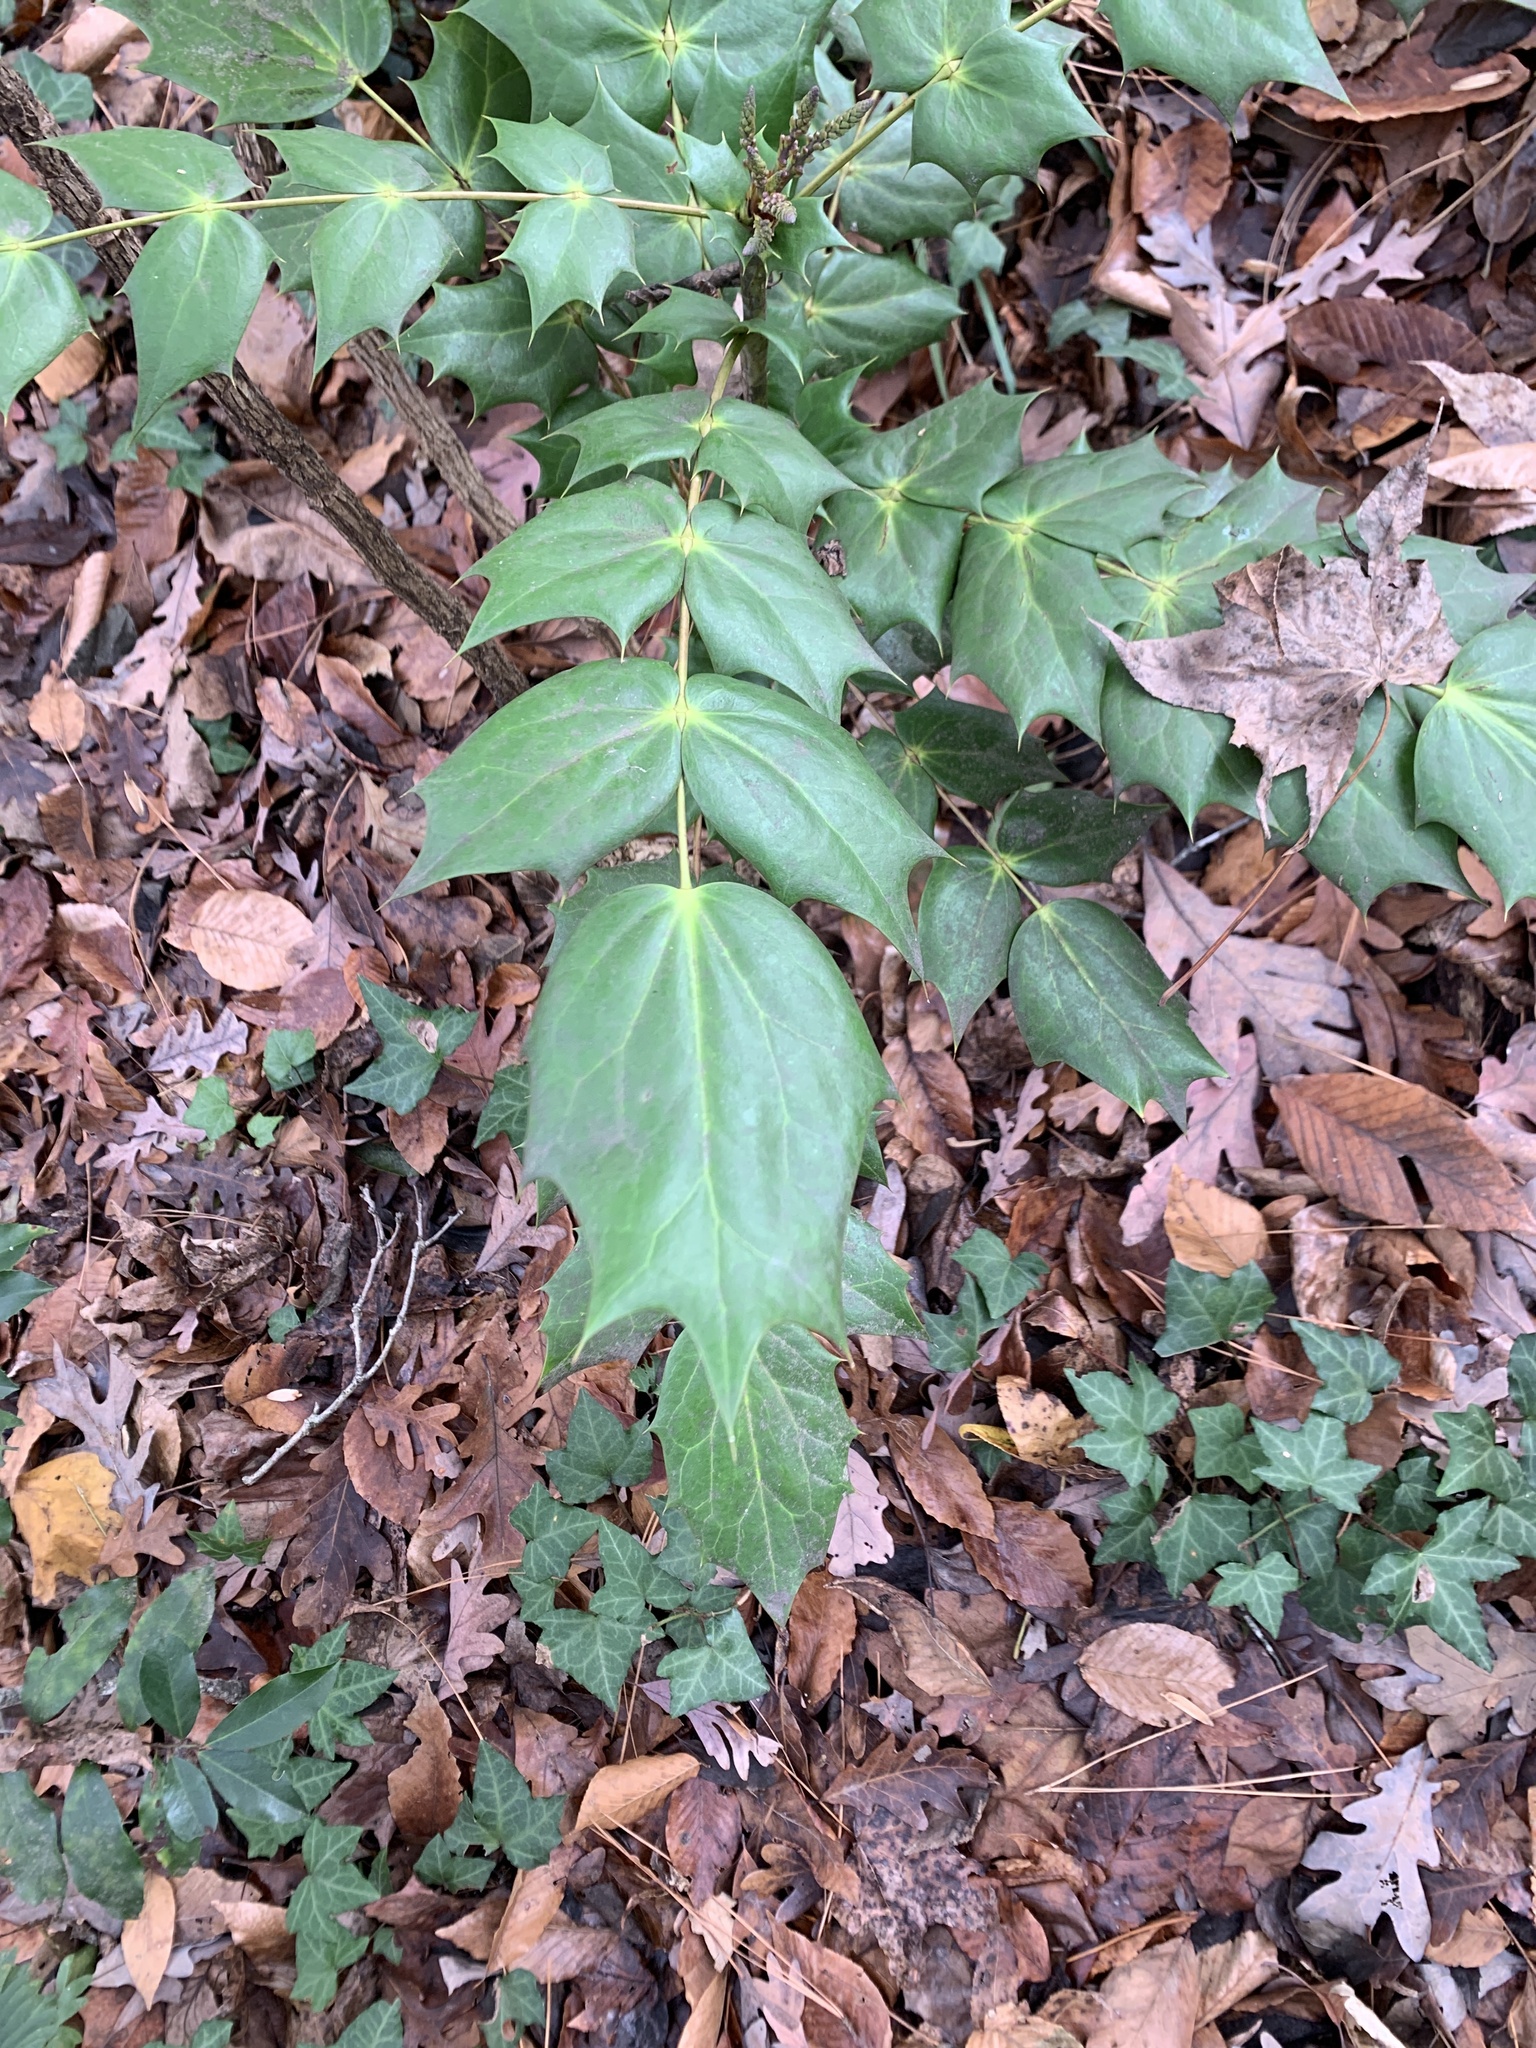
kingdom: Plantae
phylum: Tracheophyta
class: Magnoliopsida
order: Ranunculales
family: Berberidaceae
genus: Mahonia
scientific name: Mahonia bealei
